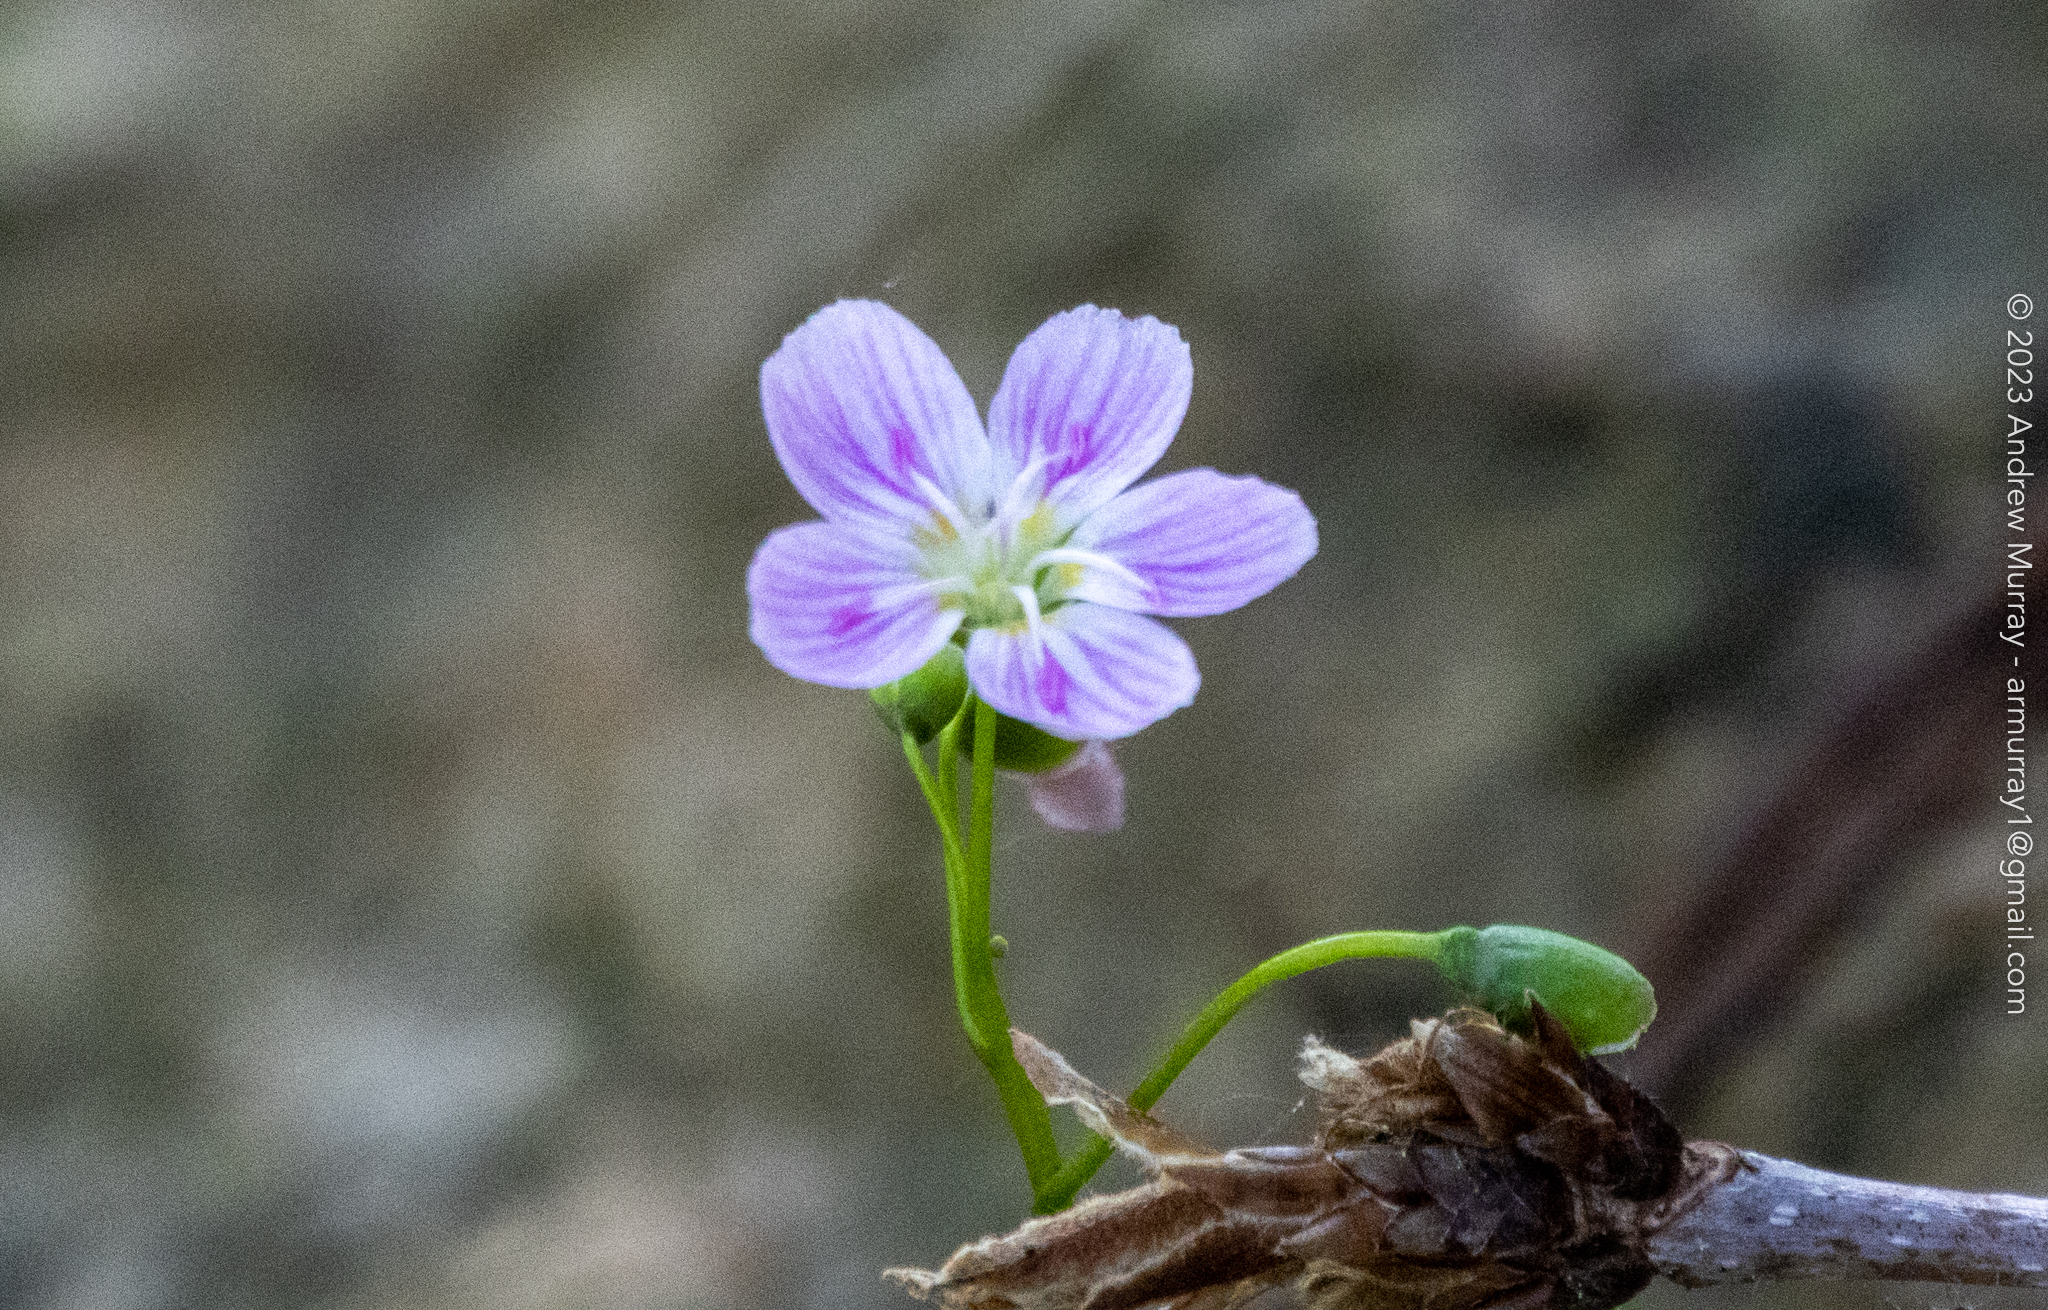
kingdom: Plantae
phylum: Tracheophyta
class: Magnoliopsida
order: Caryophyllales
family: Montiaceae
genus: Claytonia
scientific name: Claytonia virginica
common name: Virginia springbeauty
